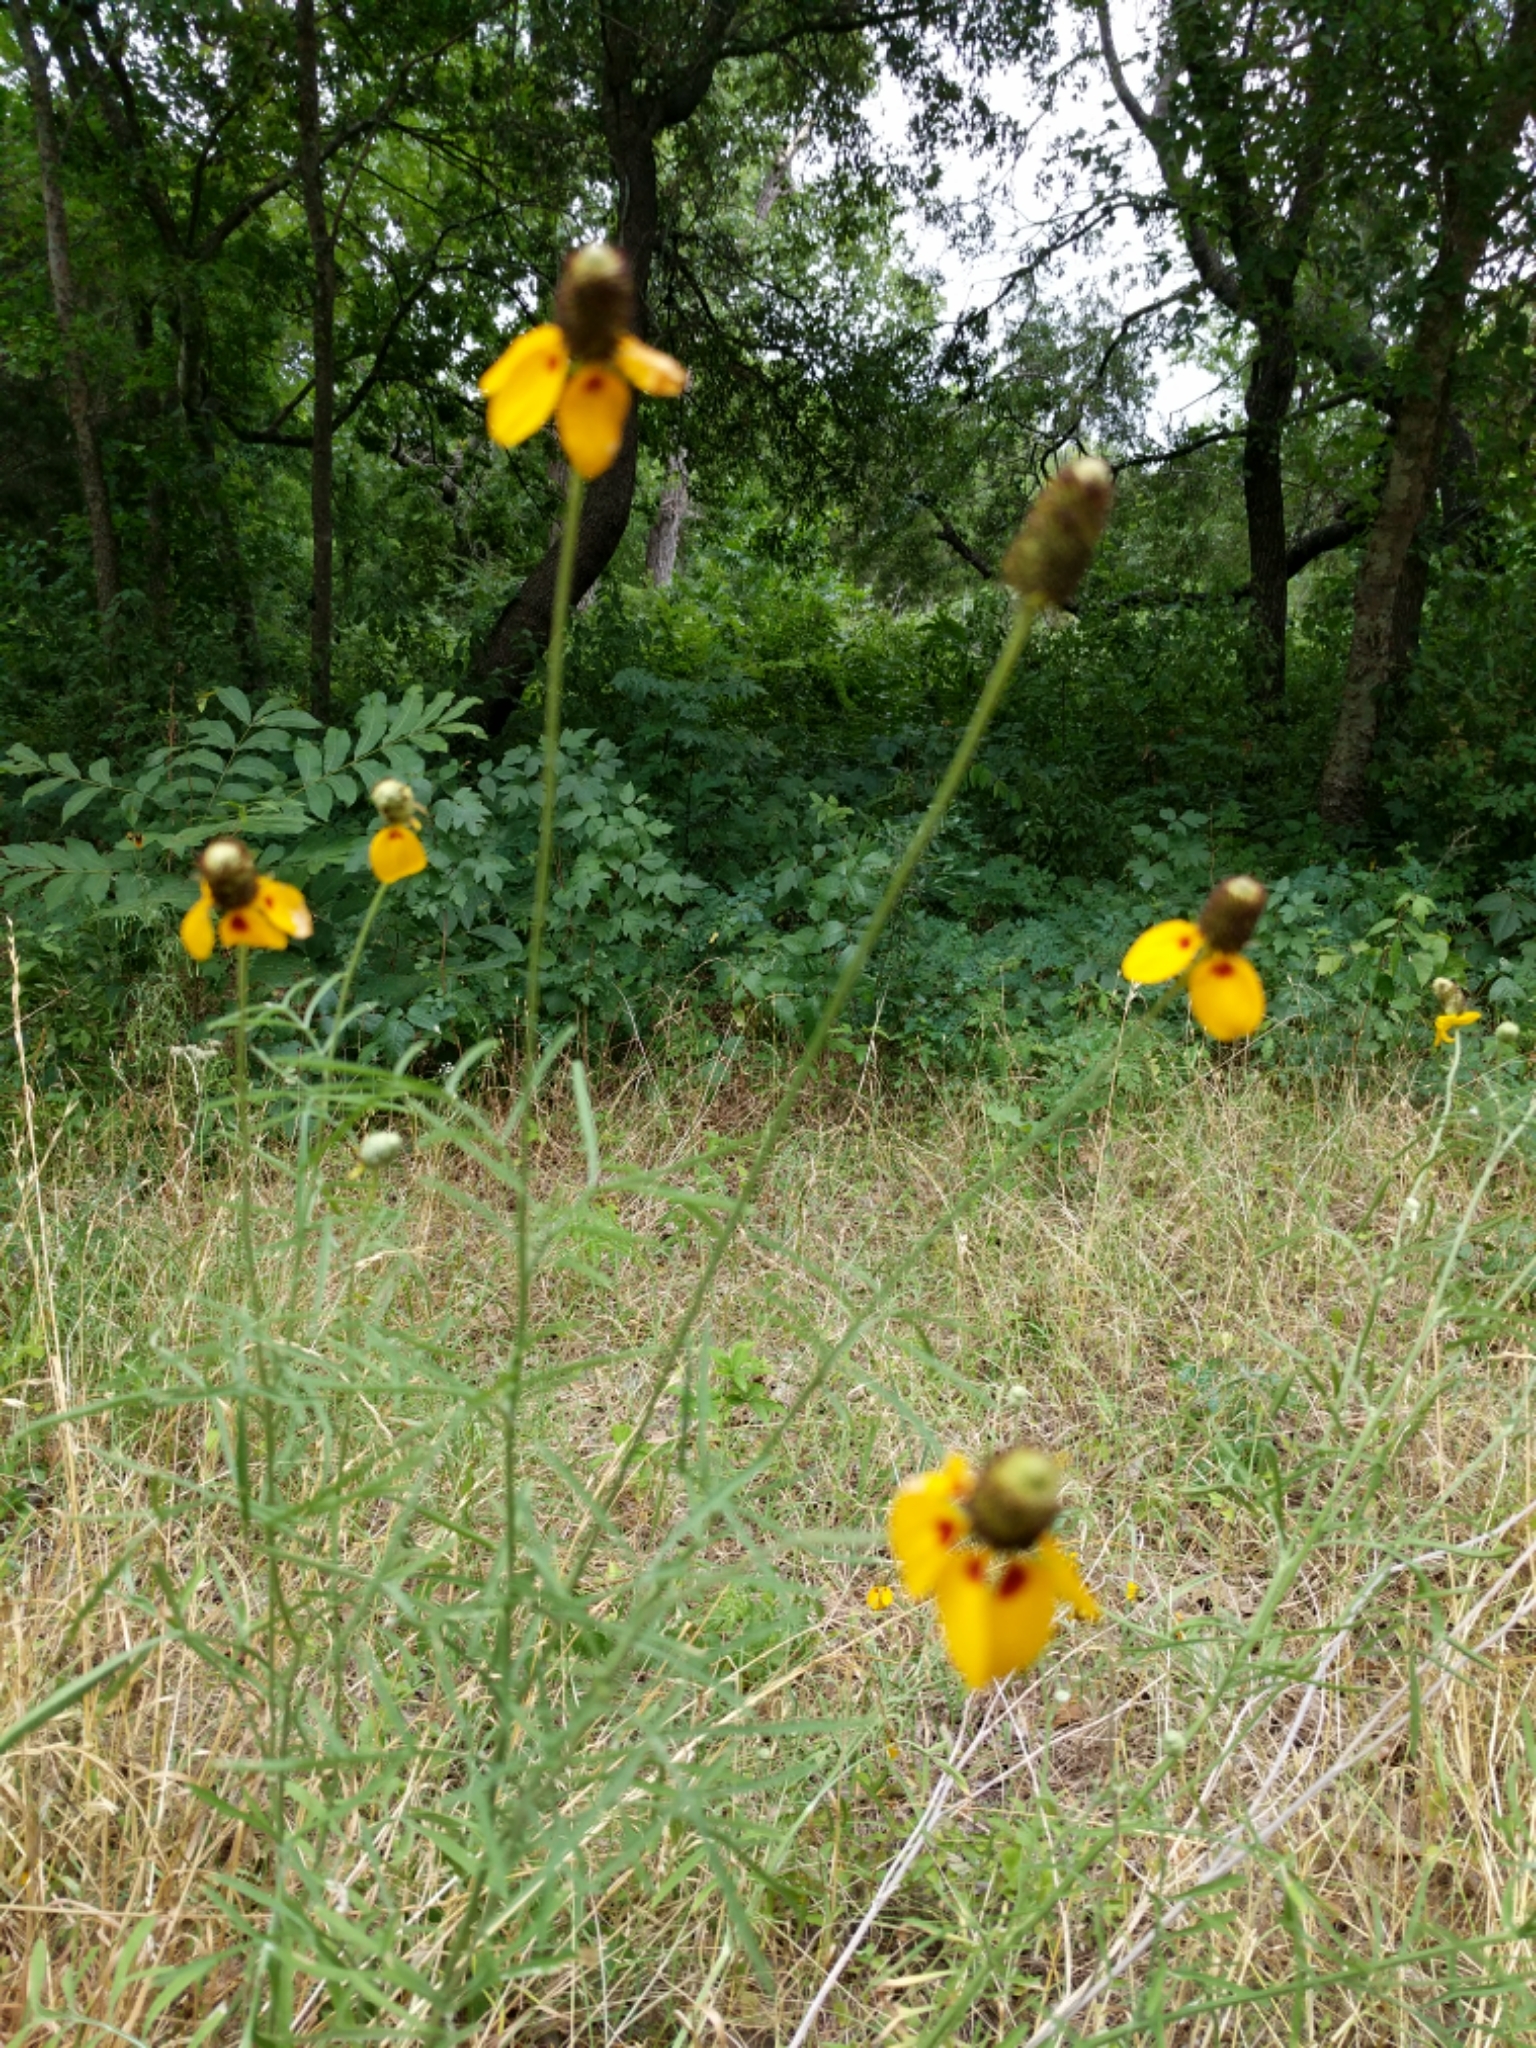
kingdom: Plantae
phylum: Tracheophyta
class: Magnoliopsida
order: Asterales
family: Asteraceae
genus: Ratibida
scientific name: Ratibida columnifera
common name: Prairie coneflower
